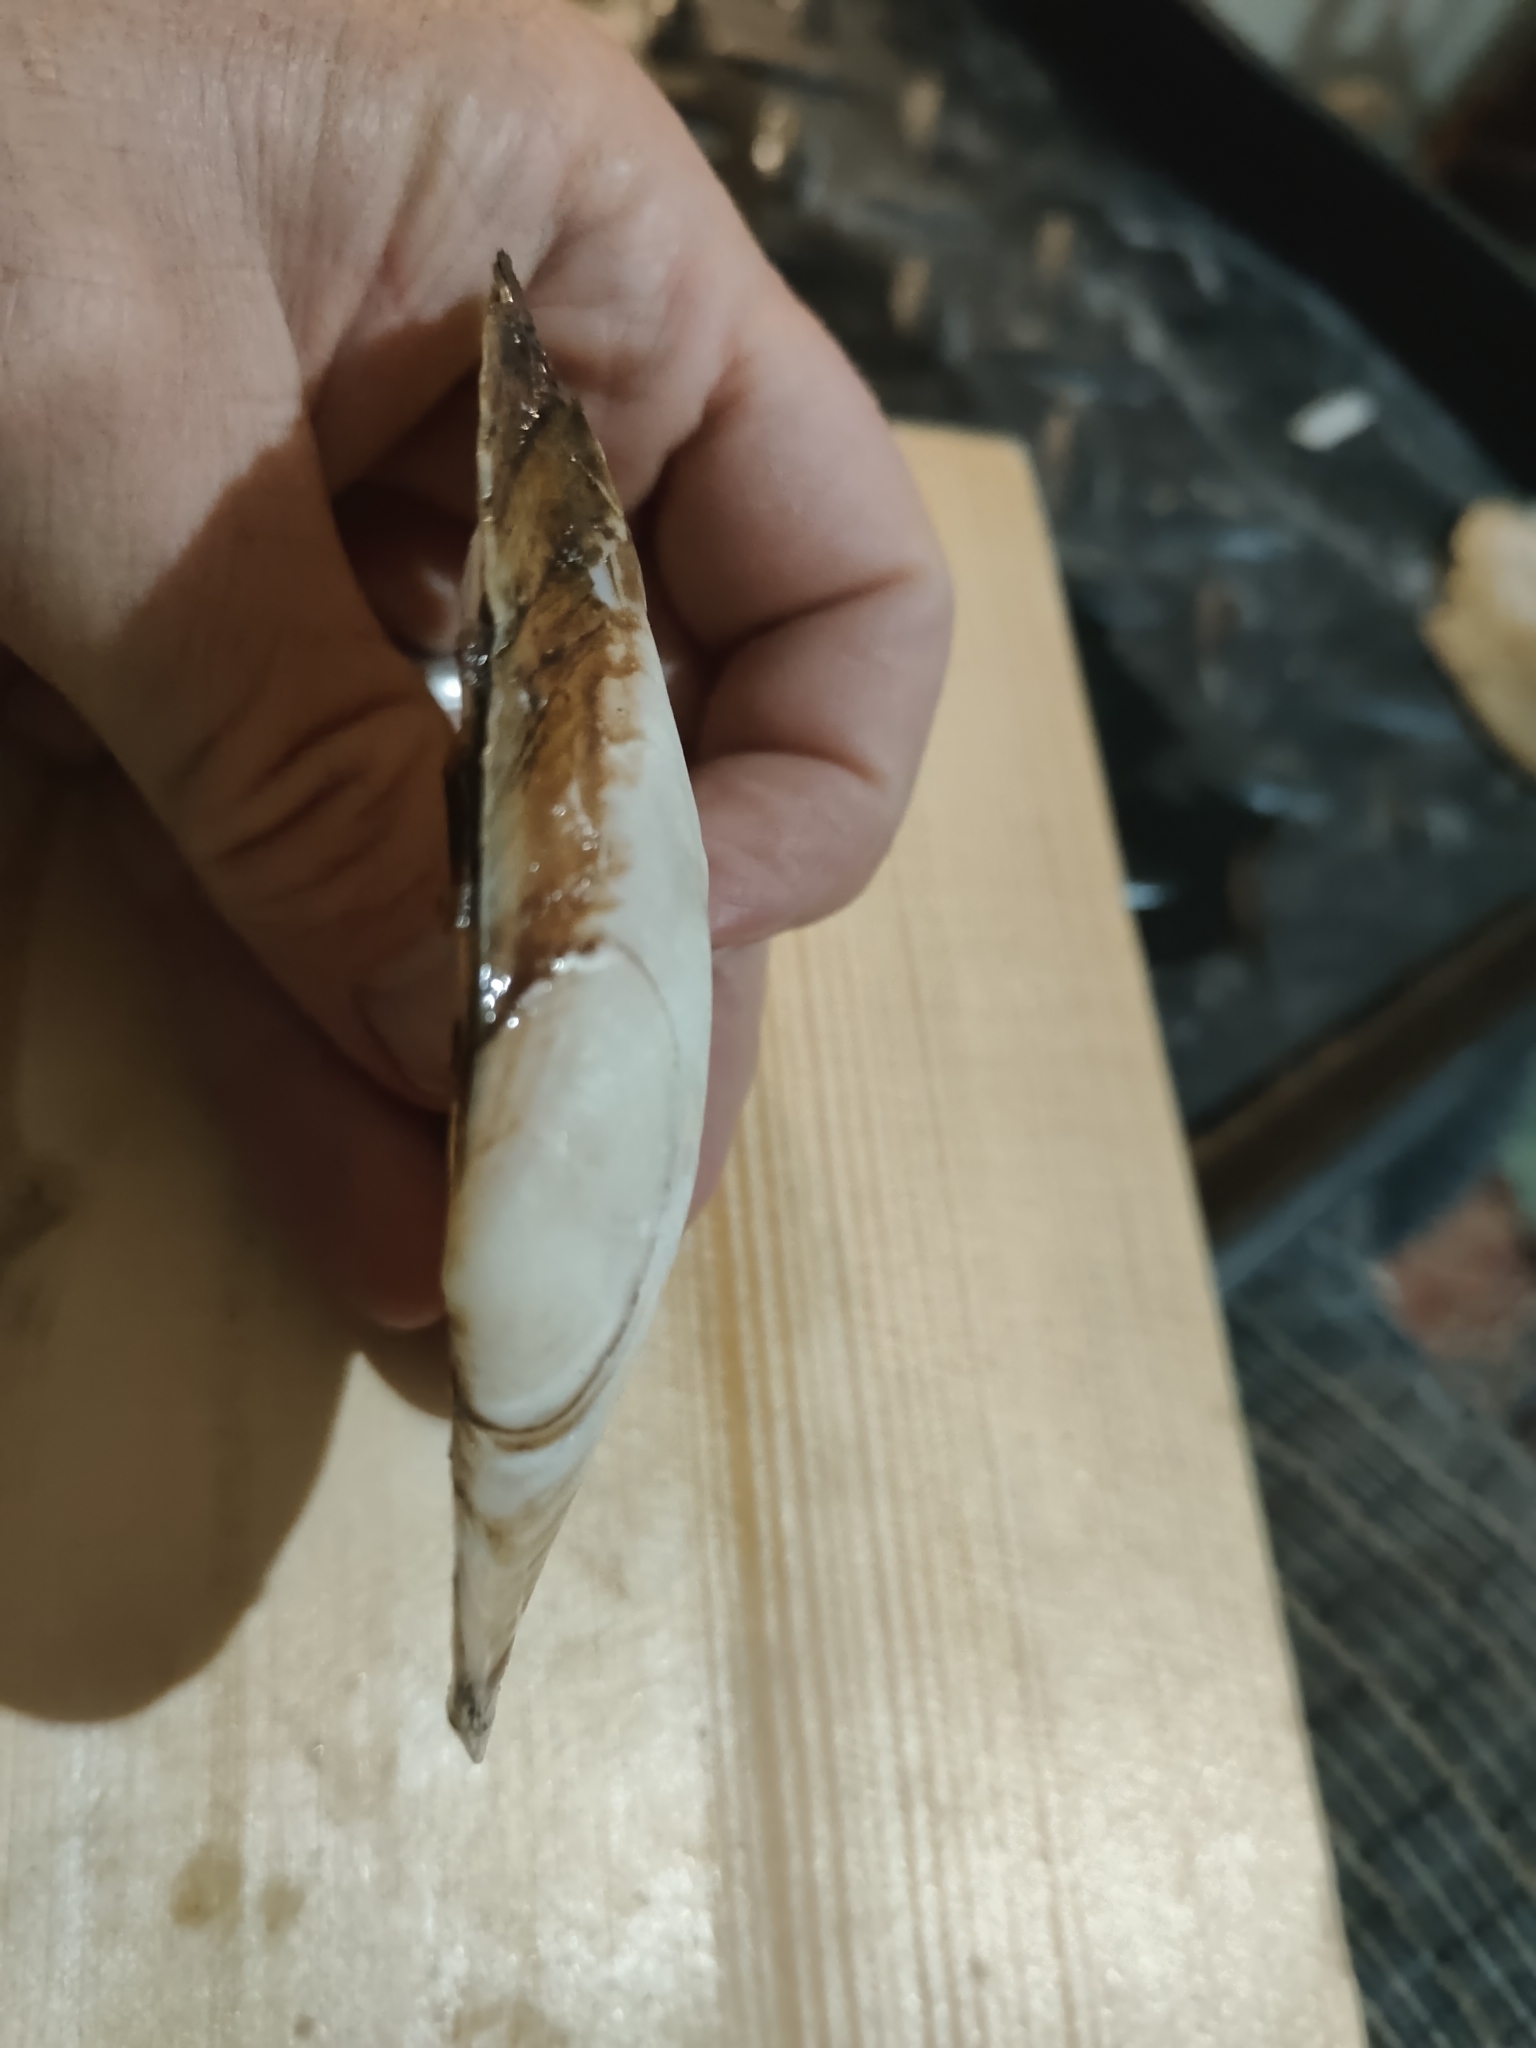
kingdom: Animalia
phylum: Mollusca
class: Bivalvia
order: Unionida
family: Unionidae
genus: Potamilus
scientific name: Potamilus fragilis
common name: Fragile papershell
